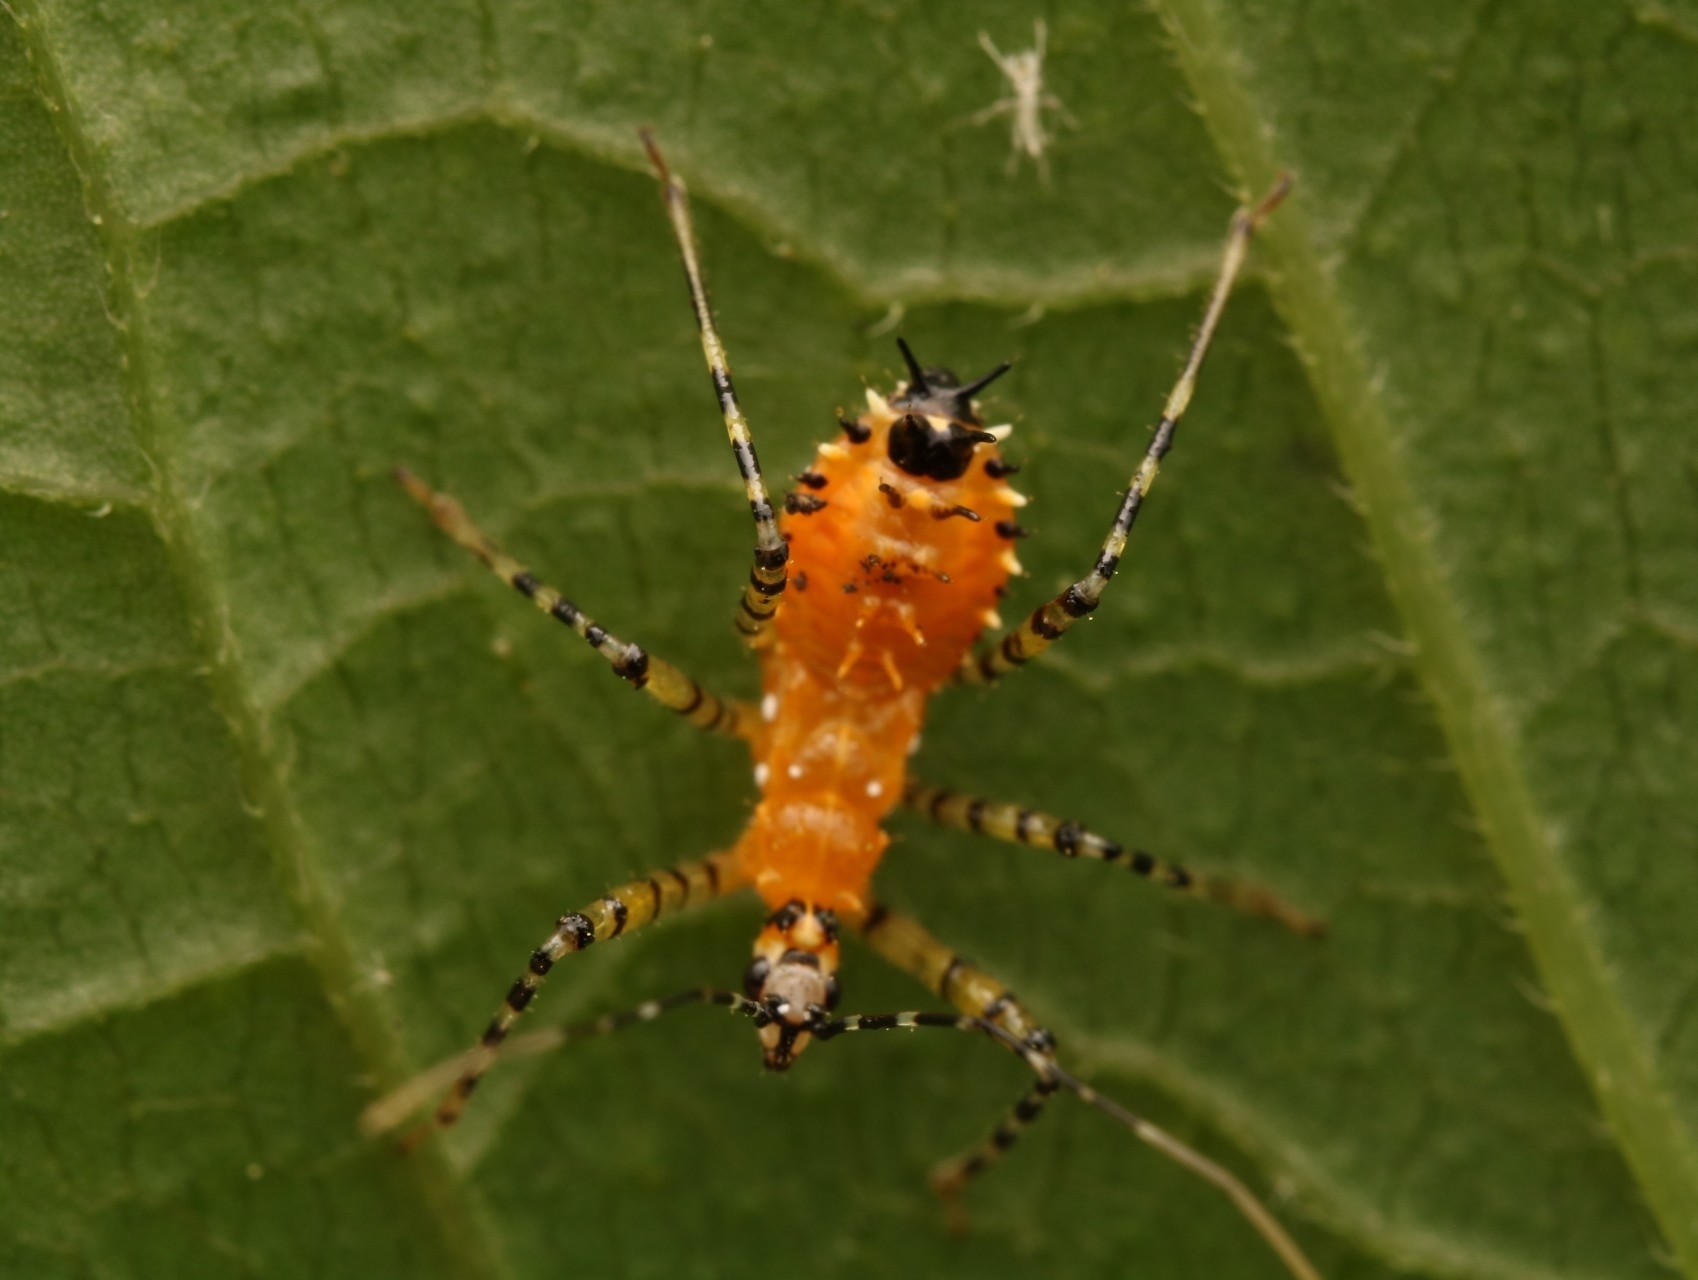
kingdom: Animalia
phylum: Arthropoda
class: Insecta
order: Hemiptera
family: Reduviidae
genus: Pselliopus
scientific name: Pselliopus barberi
